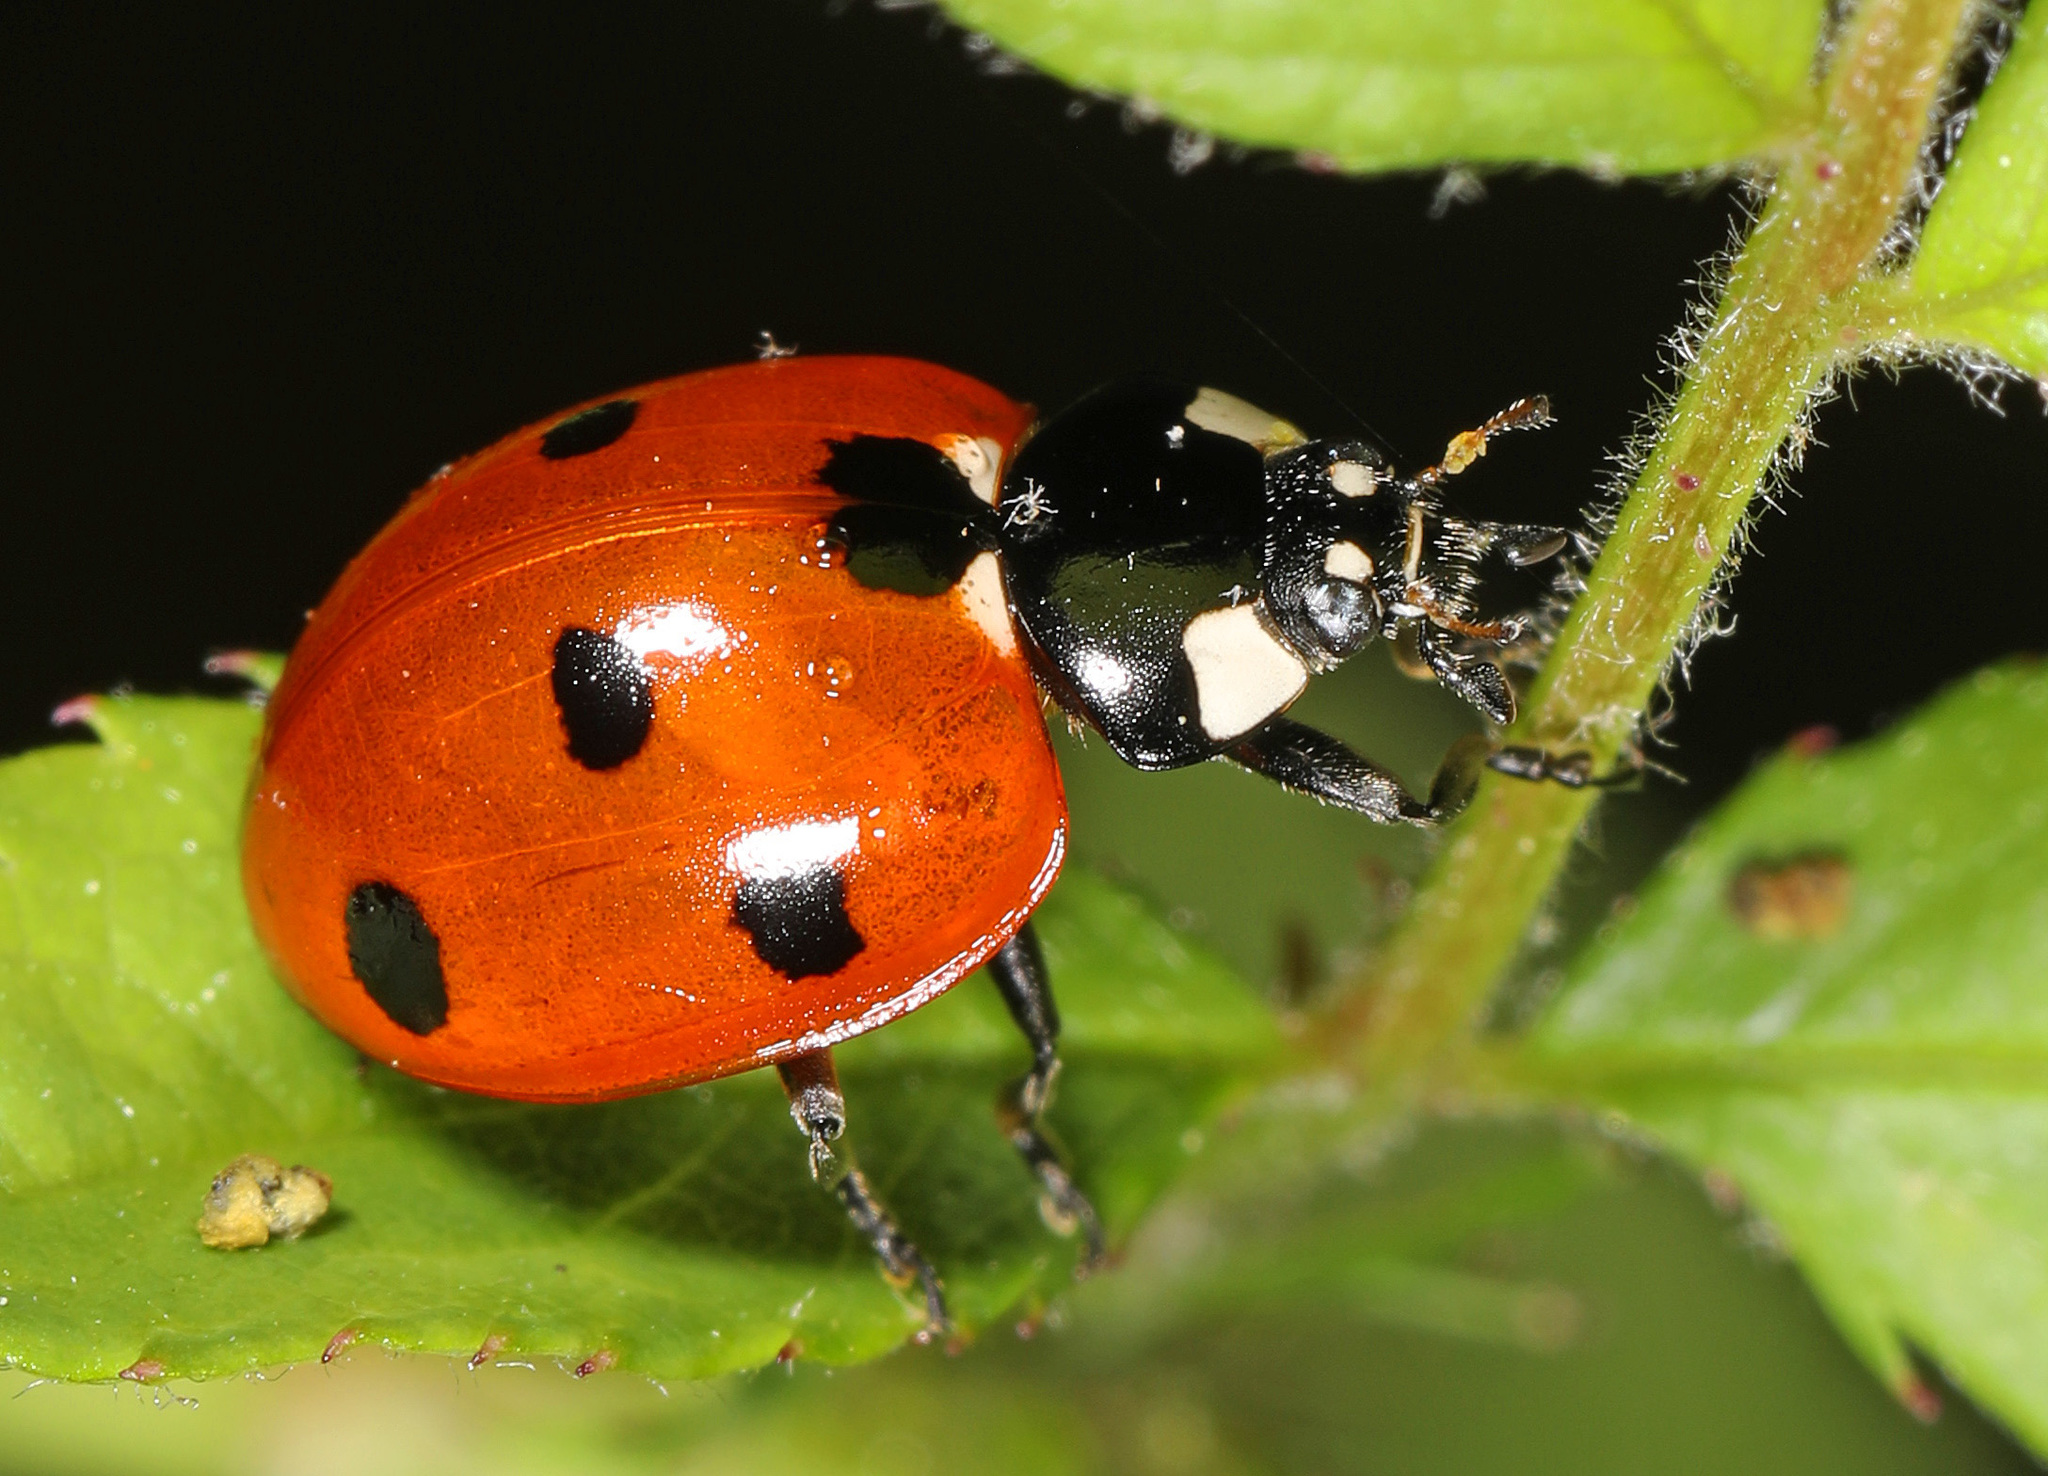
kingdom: Animalia
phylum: Arthropoda
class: Insecta
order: Coleoptera
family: Coccinellidae
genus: Coccinella
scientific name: Coccinella septempunctata
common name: Sevenspotted lady beetle
